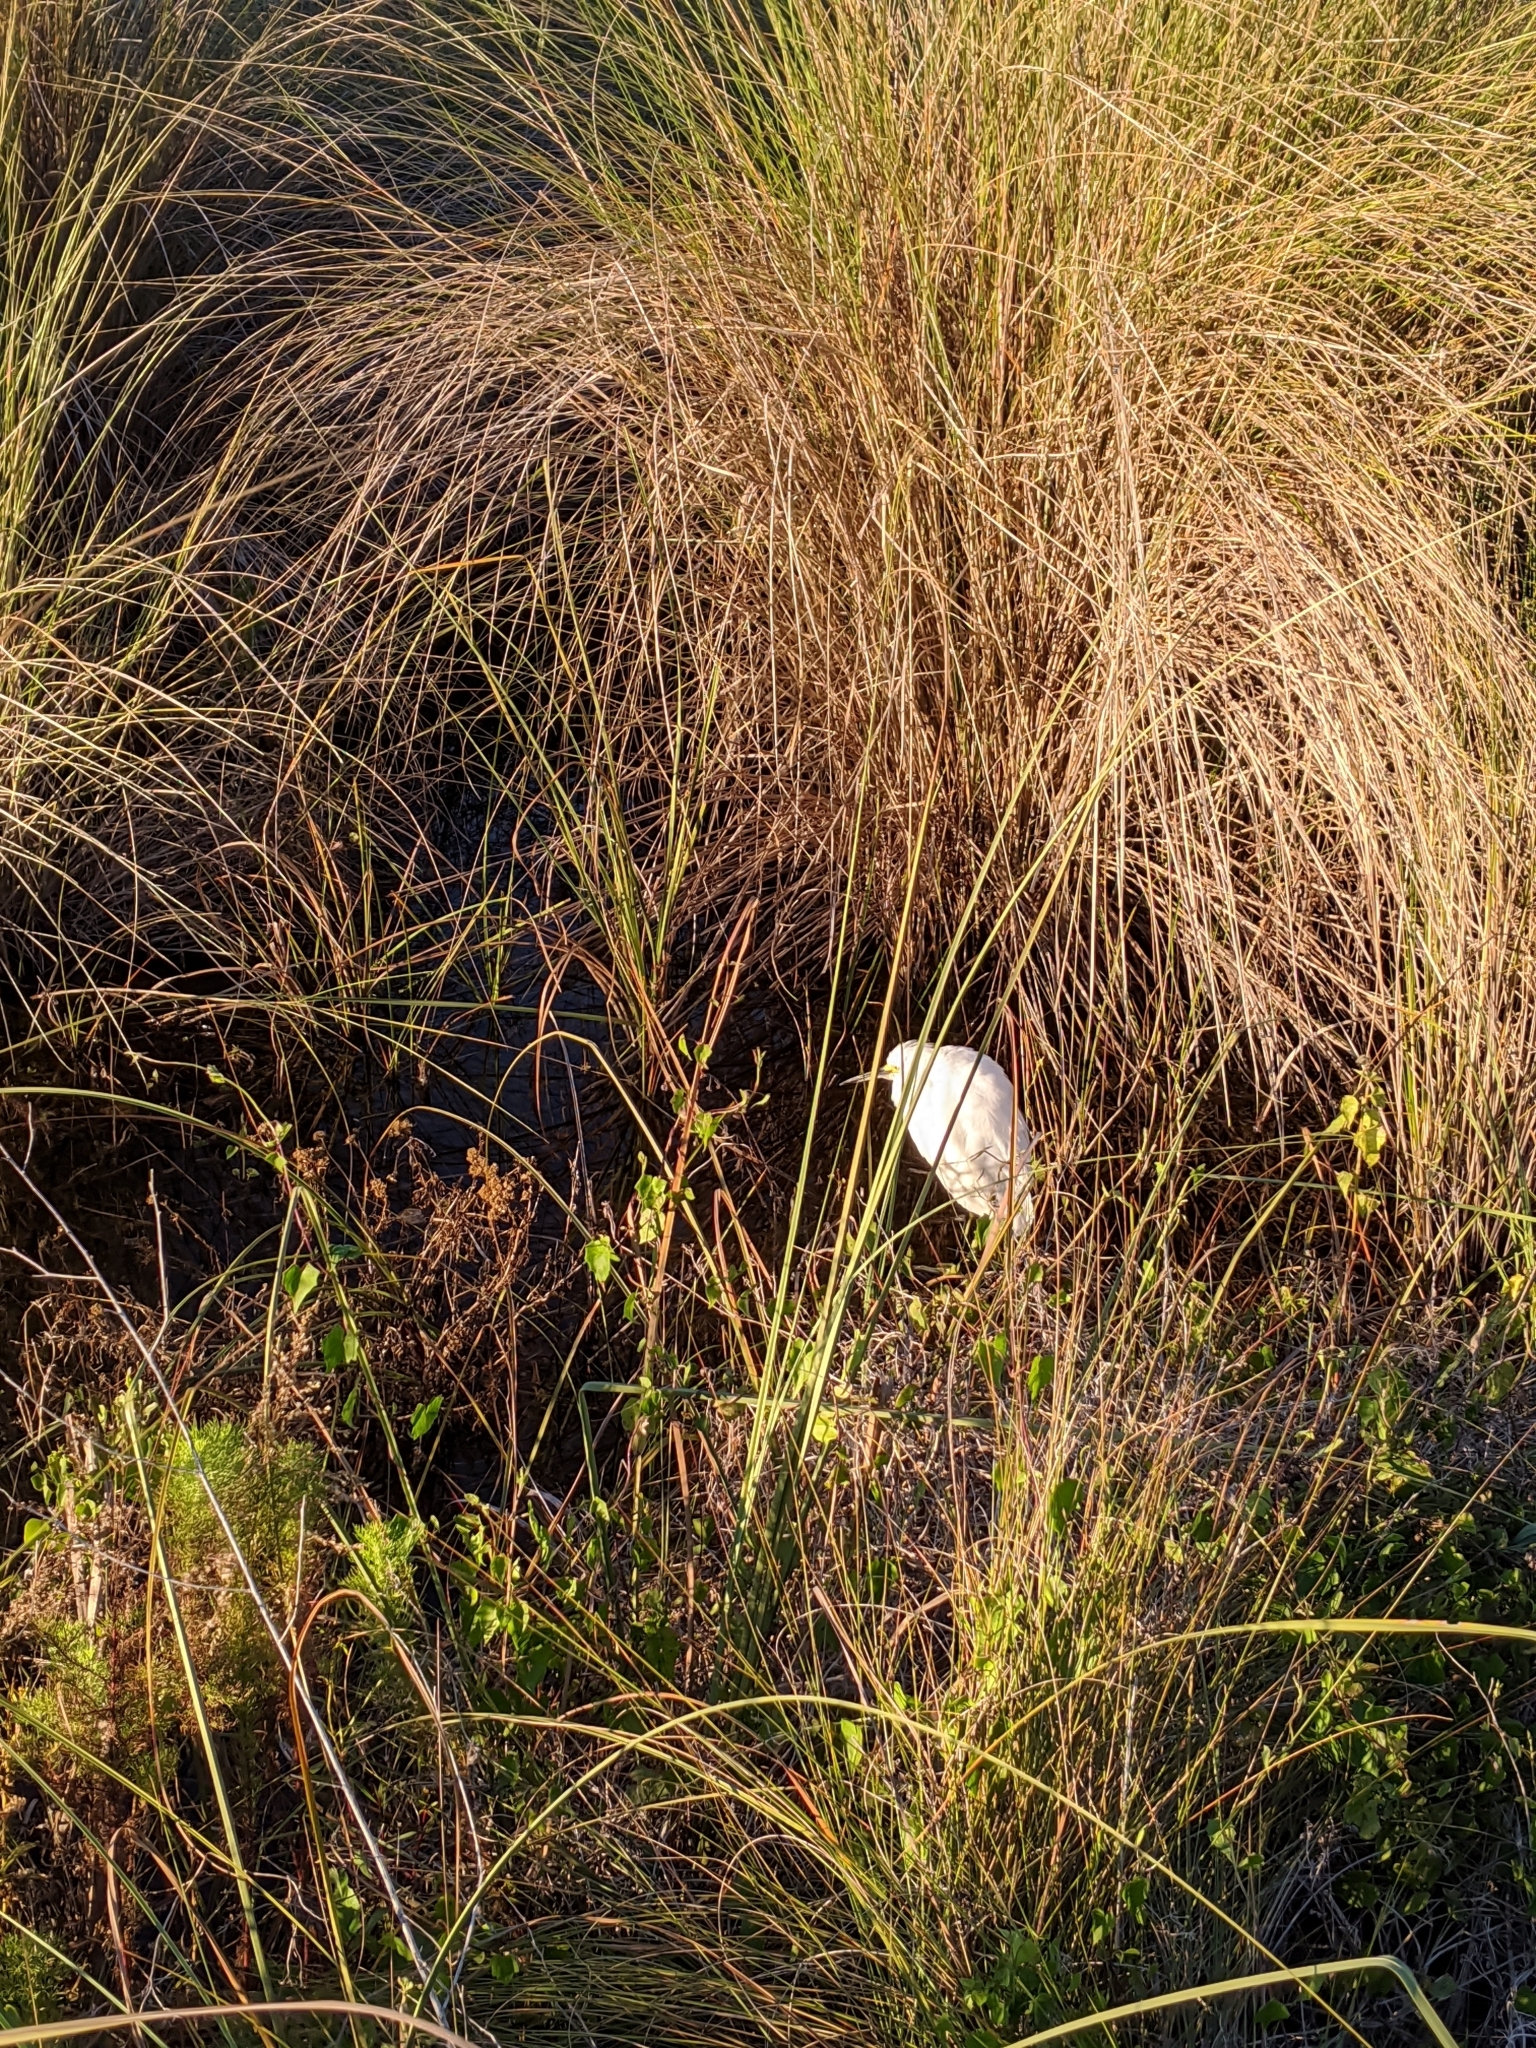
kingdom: Animalia
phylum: Chordata
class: Aves
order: Pelecaniformes
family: Ardeidae
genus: Egretta
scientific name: Egretta thula
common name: Snowy egret
